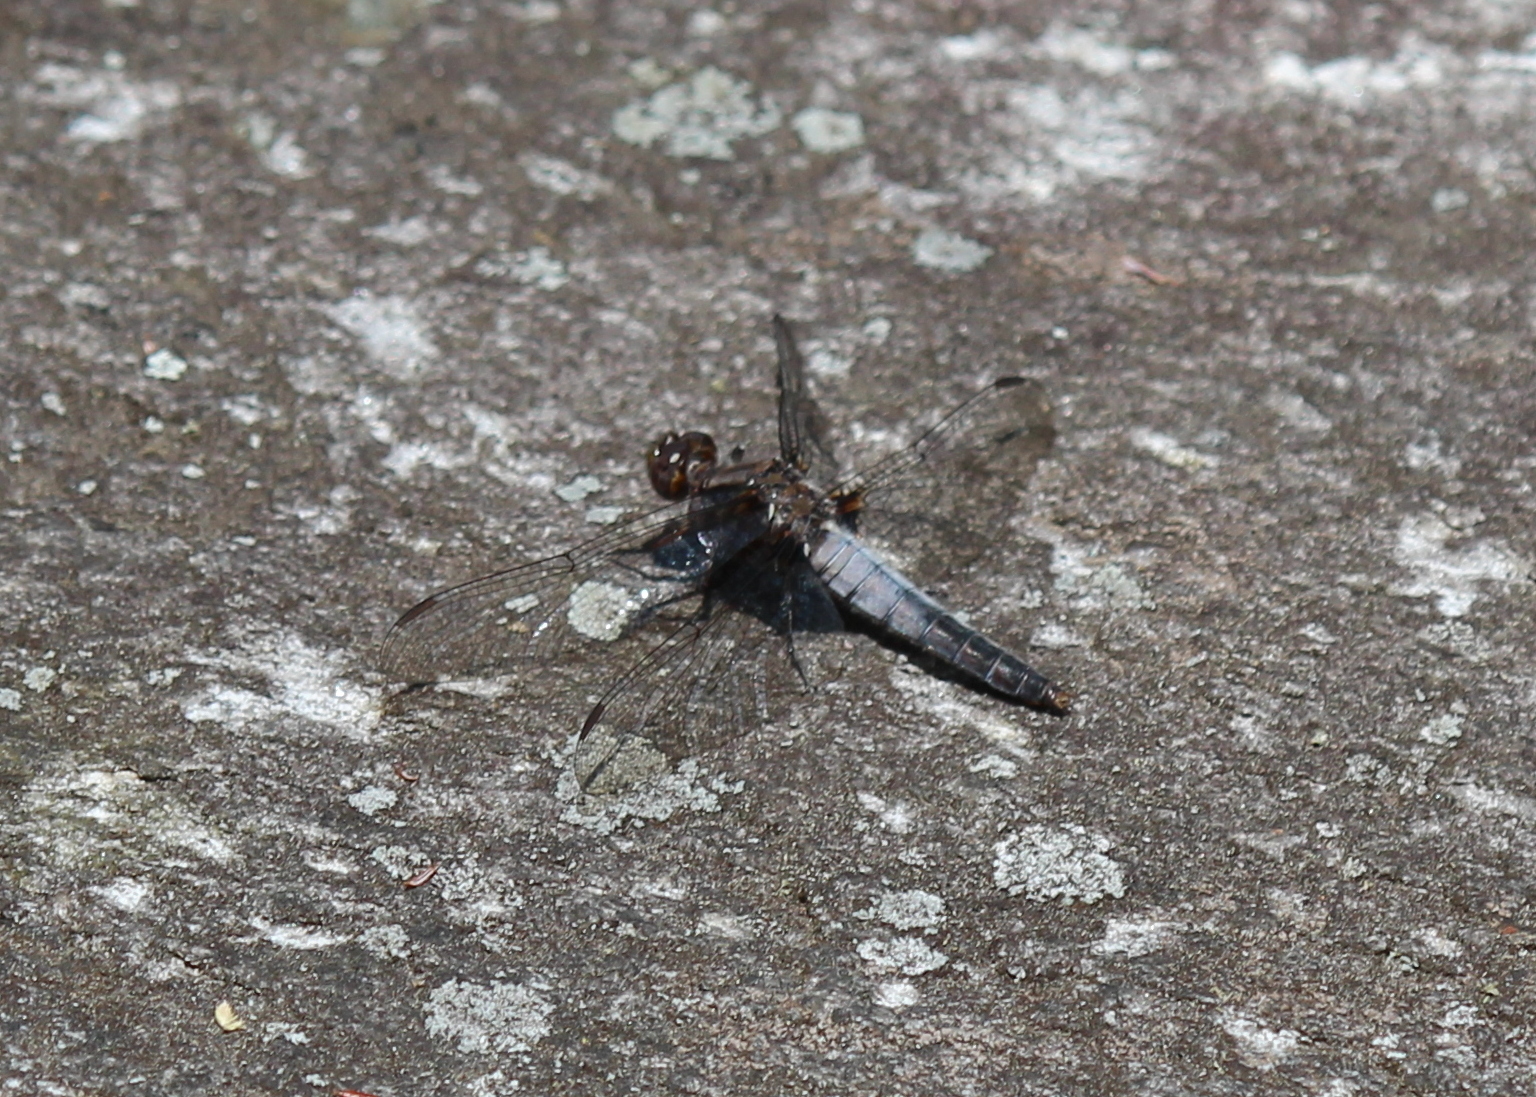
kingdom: Animalia
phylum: Arthropoda
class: Insecta
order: Odonata
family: Libellulidae
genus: Ladona
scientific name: Ladona julia
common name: Chalk-fronted corporal
